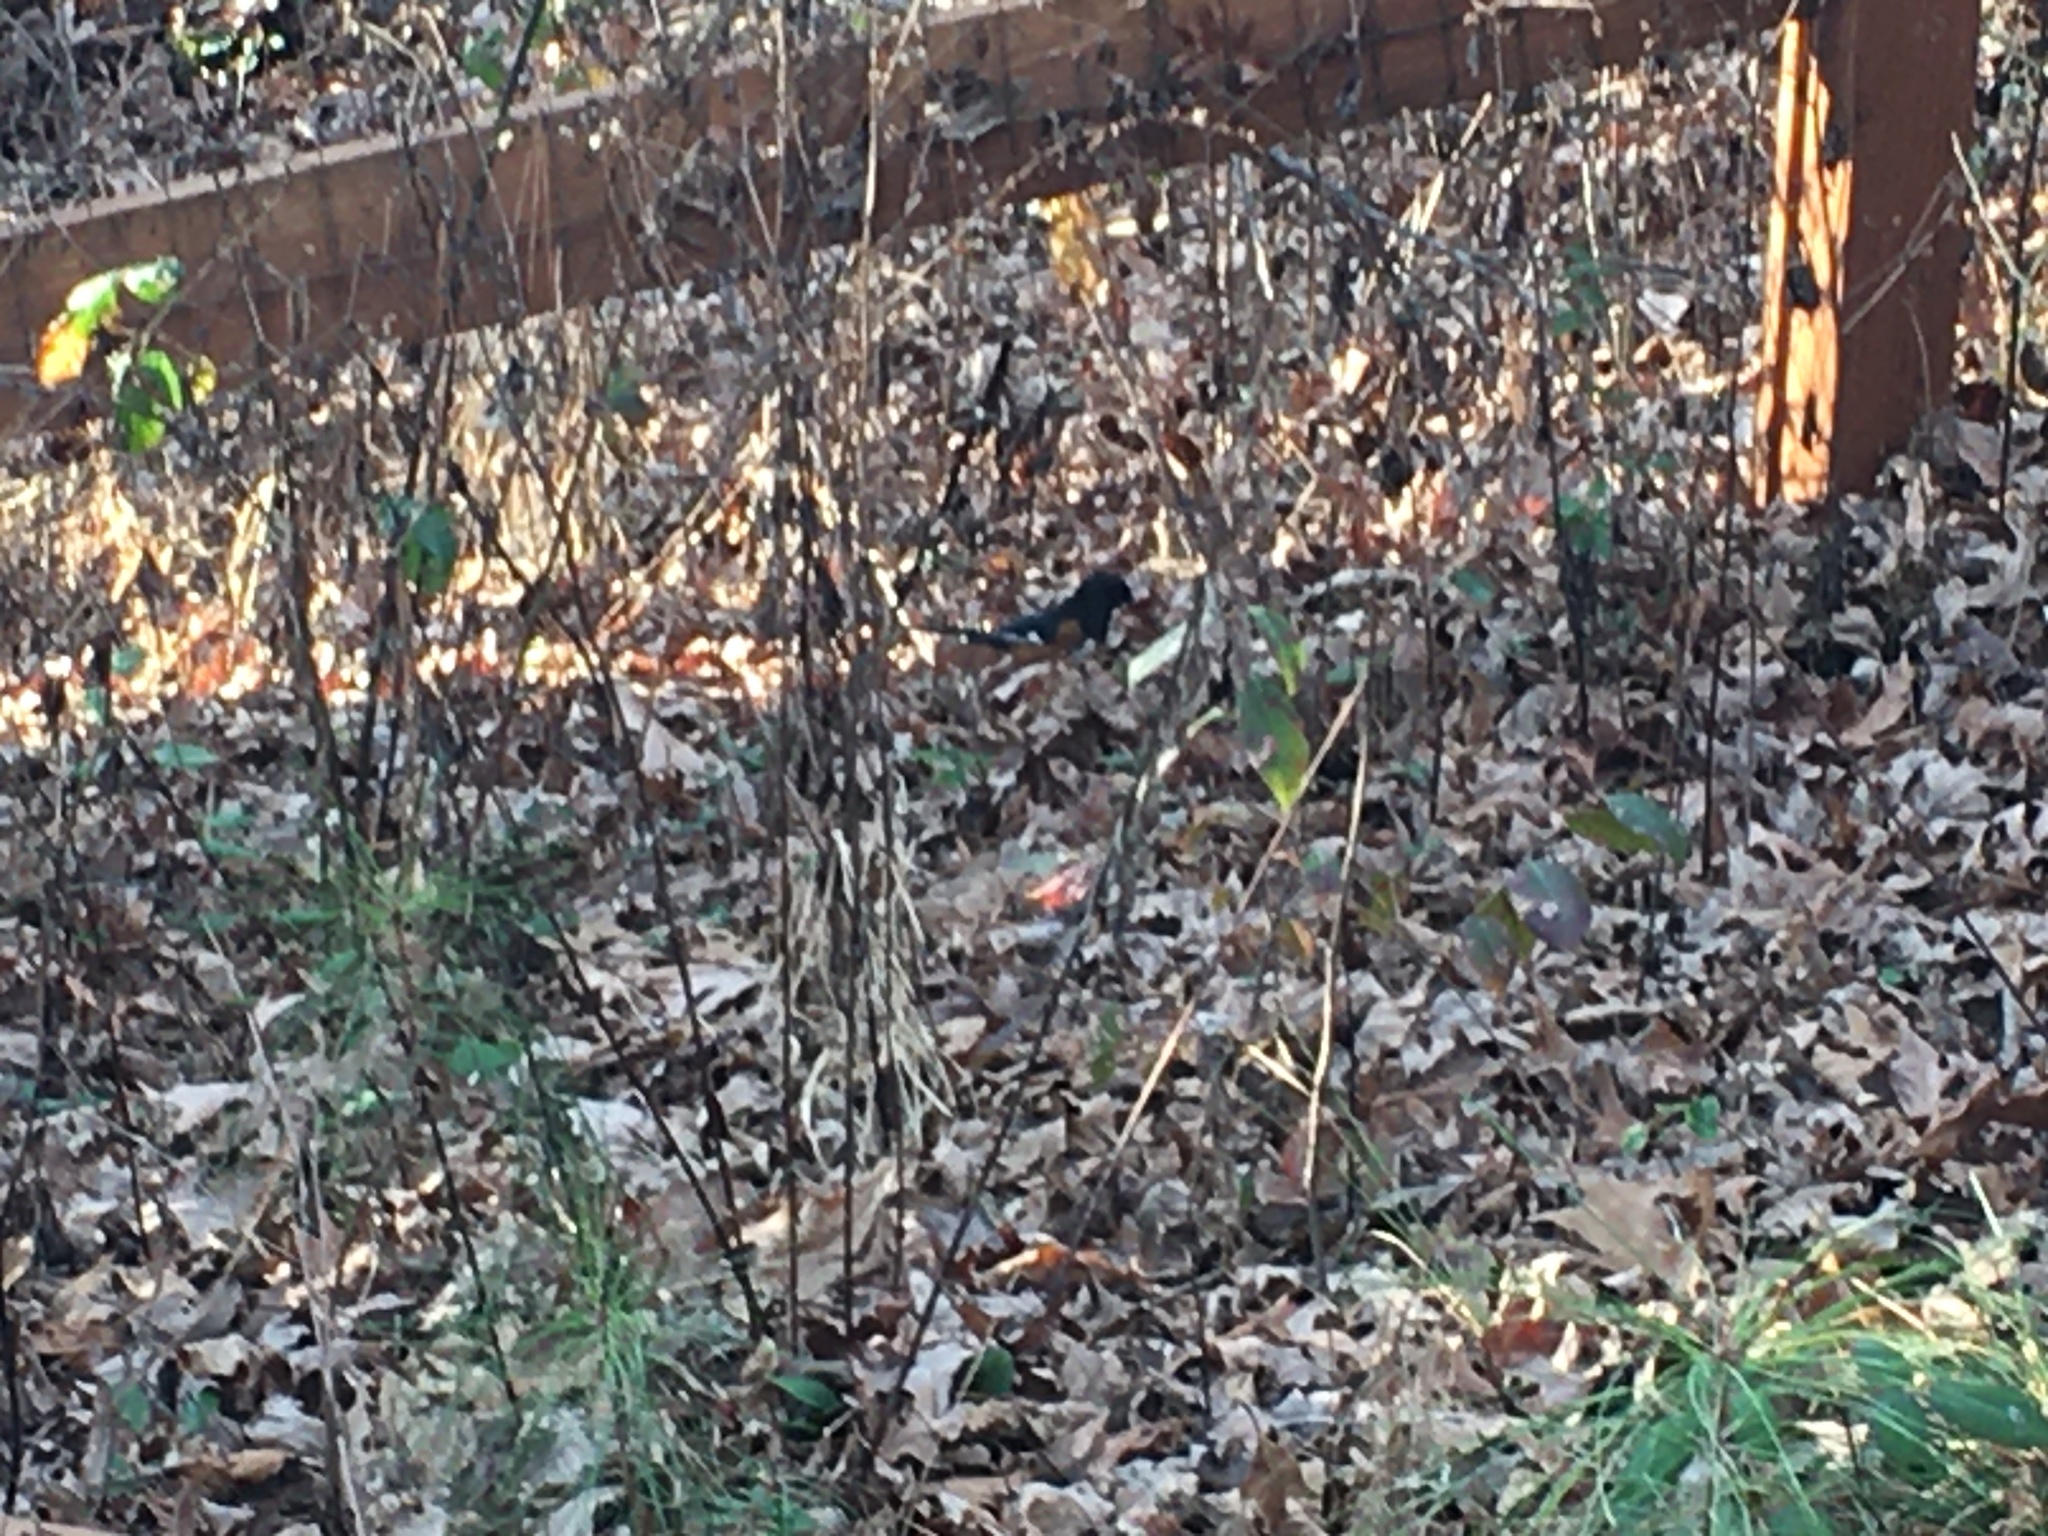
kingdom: Animalia
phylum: Chordata
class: Aves
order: Passeriformes
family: Passerellidae
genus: Pipilo
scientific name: Pipilo erythrophthalmus
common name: Eastern towhee
